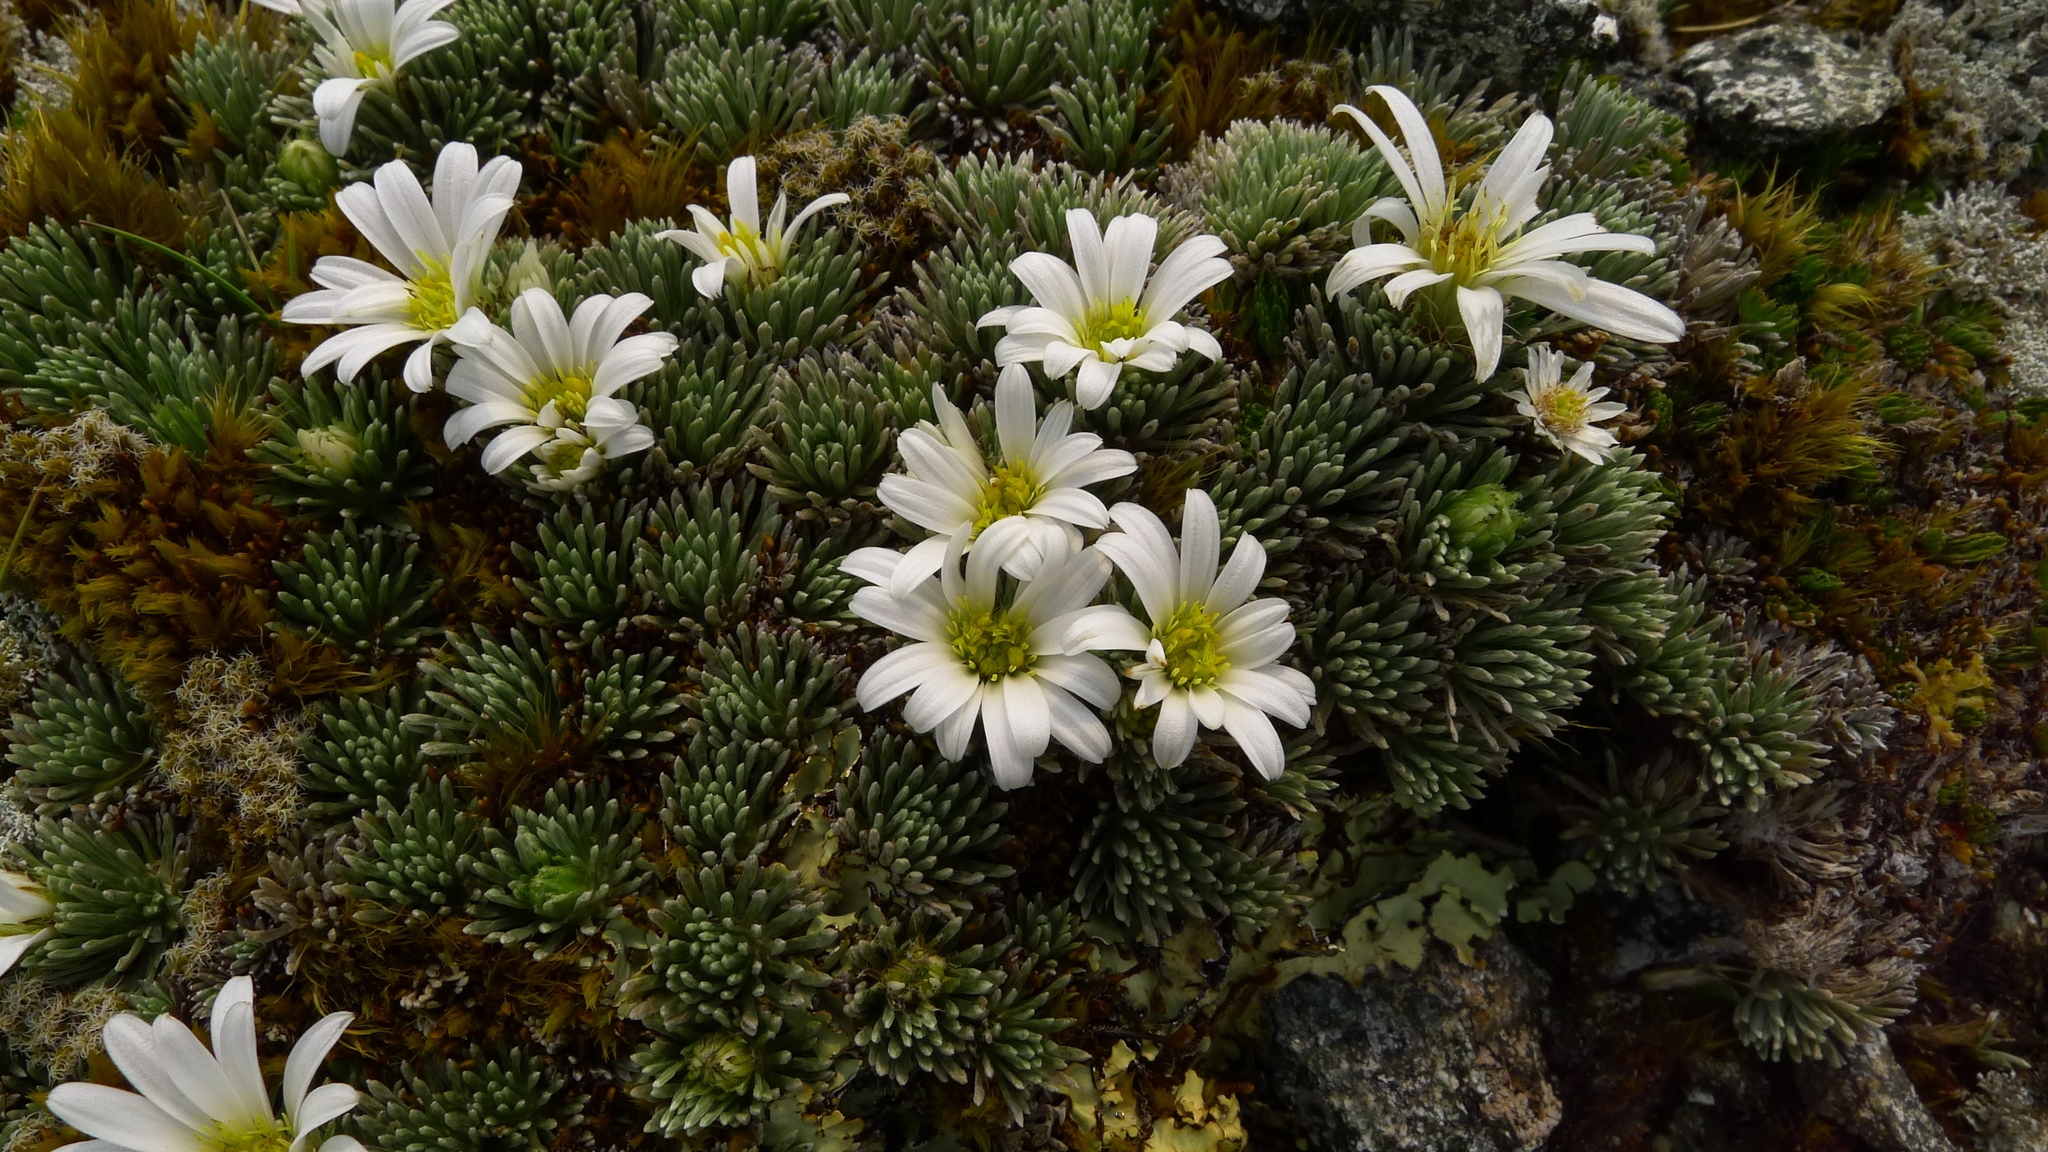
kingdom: Plantae
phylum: Tracheophyta
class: Magnoliopsida
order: Asterales
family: Asteraceae
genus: Celmisia
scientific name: Celmisia sessiliflora
